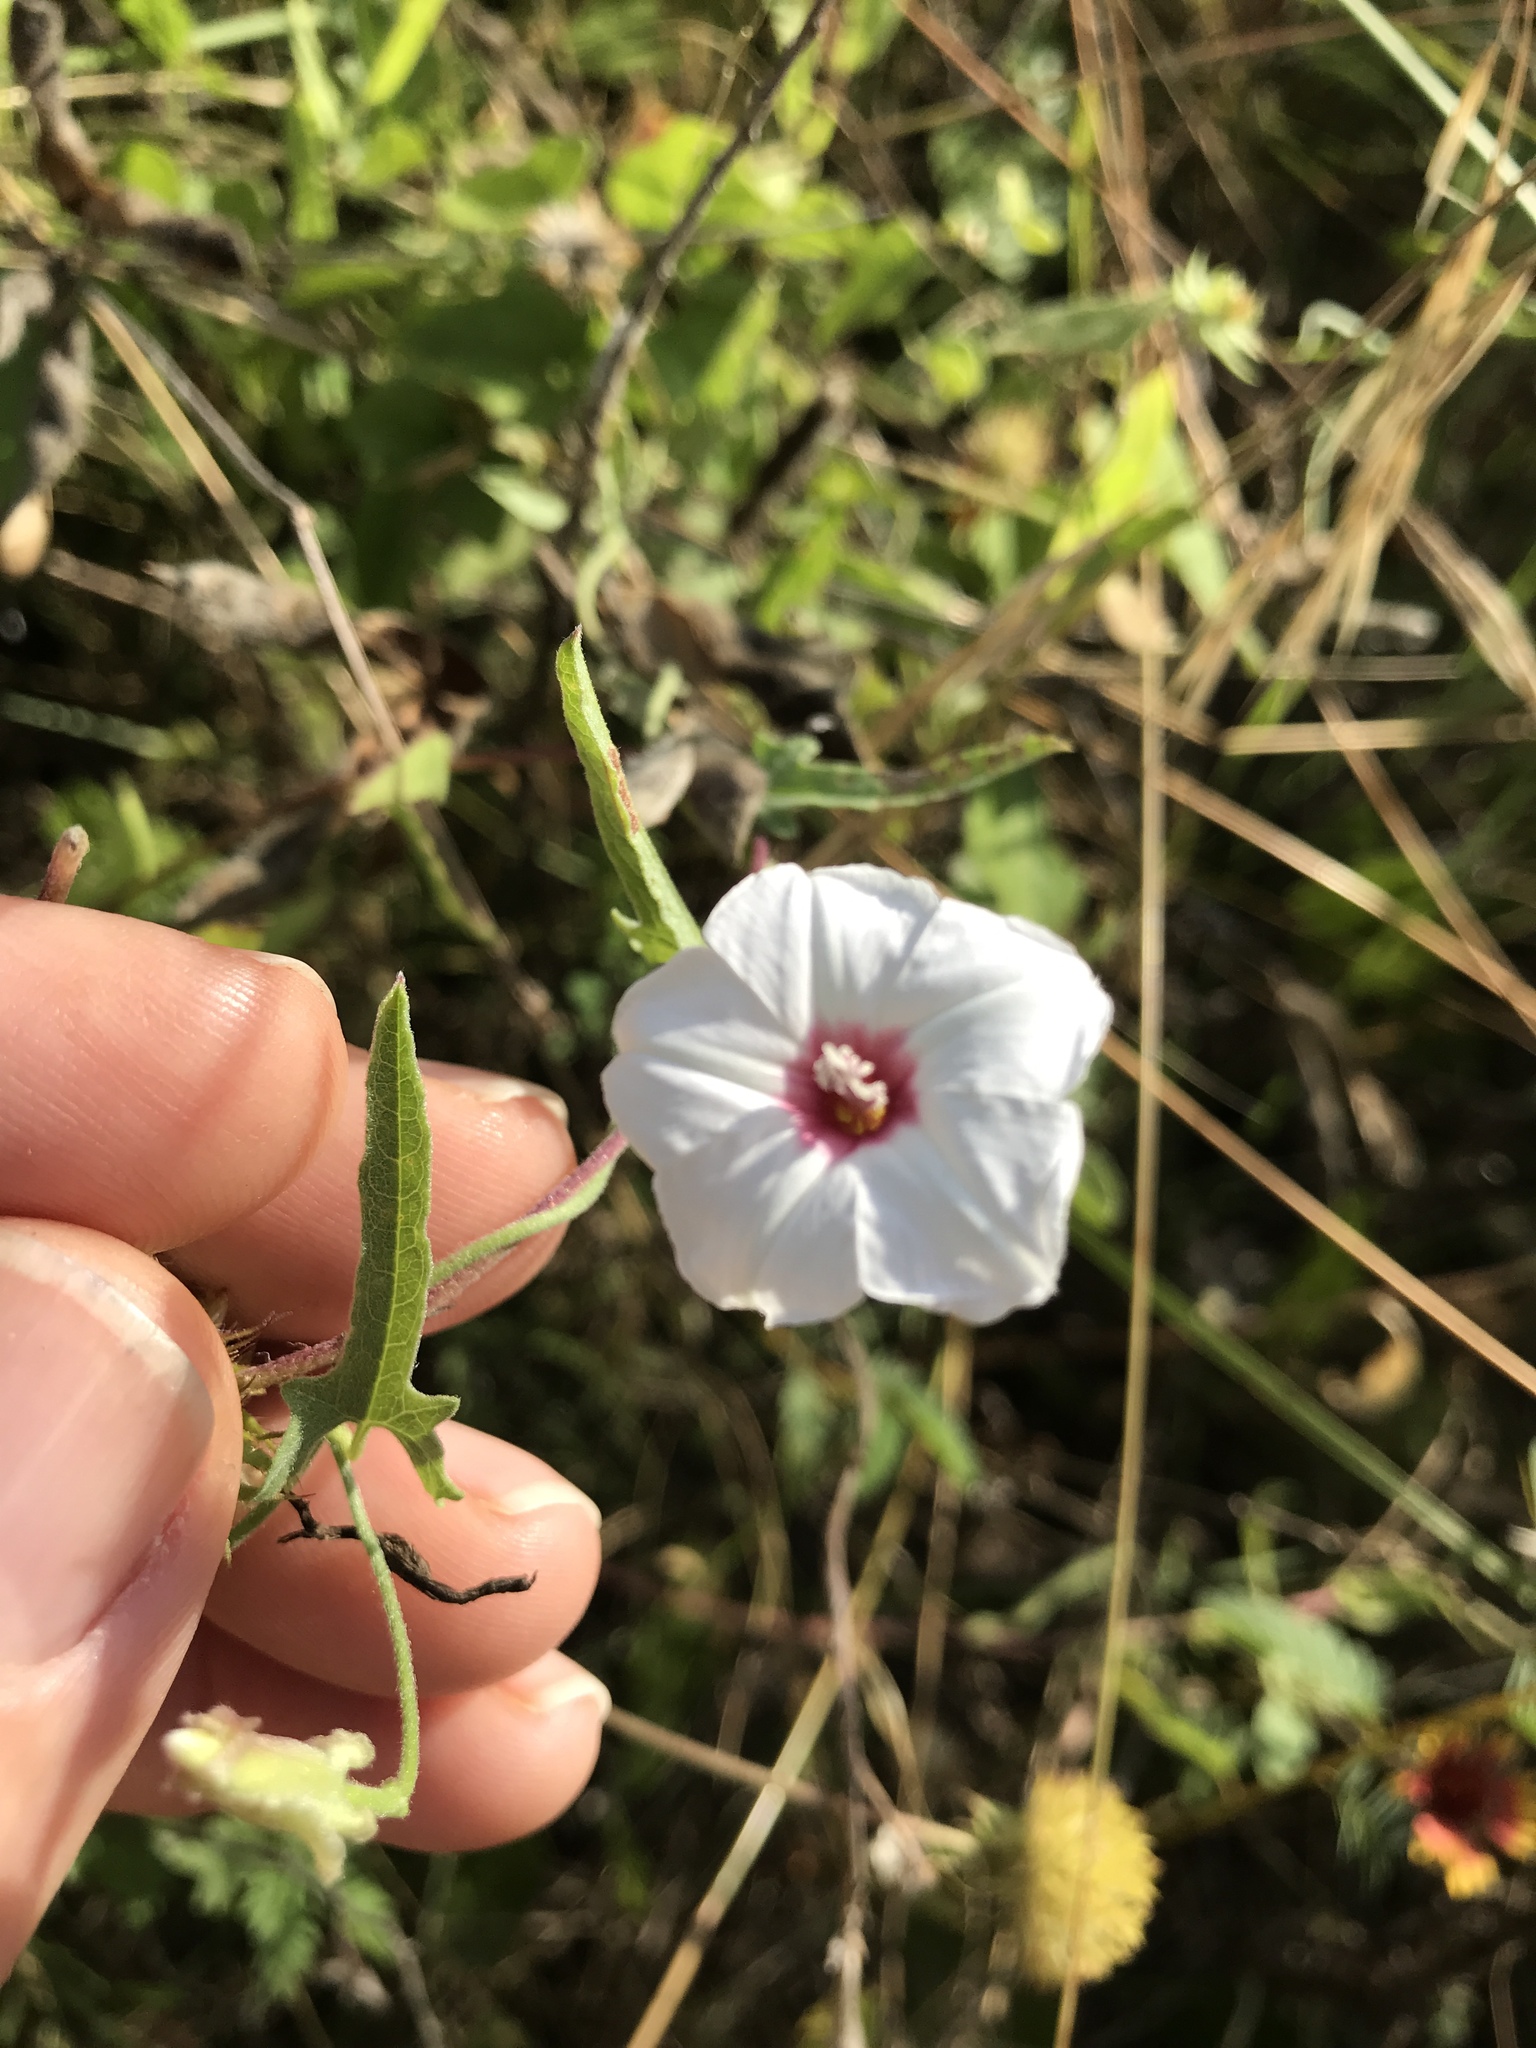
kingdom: Plantae
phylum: Tracheophyta
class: Magnoliopsida
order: Solanales
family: Convolvulaceae
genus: Convolvulus
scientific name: Convolvulus equitans
